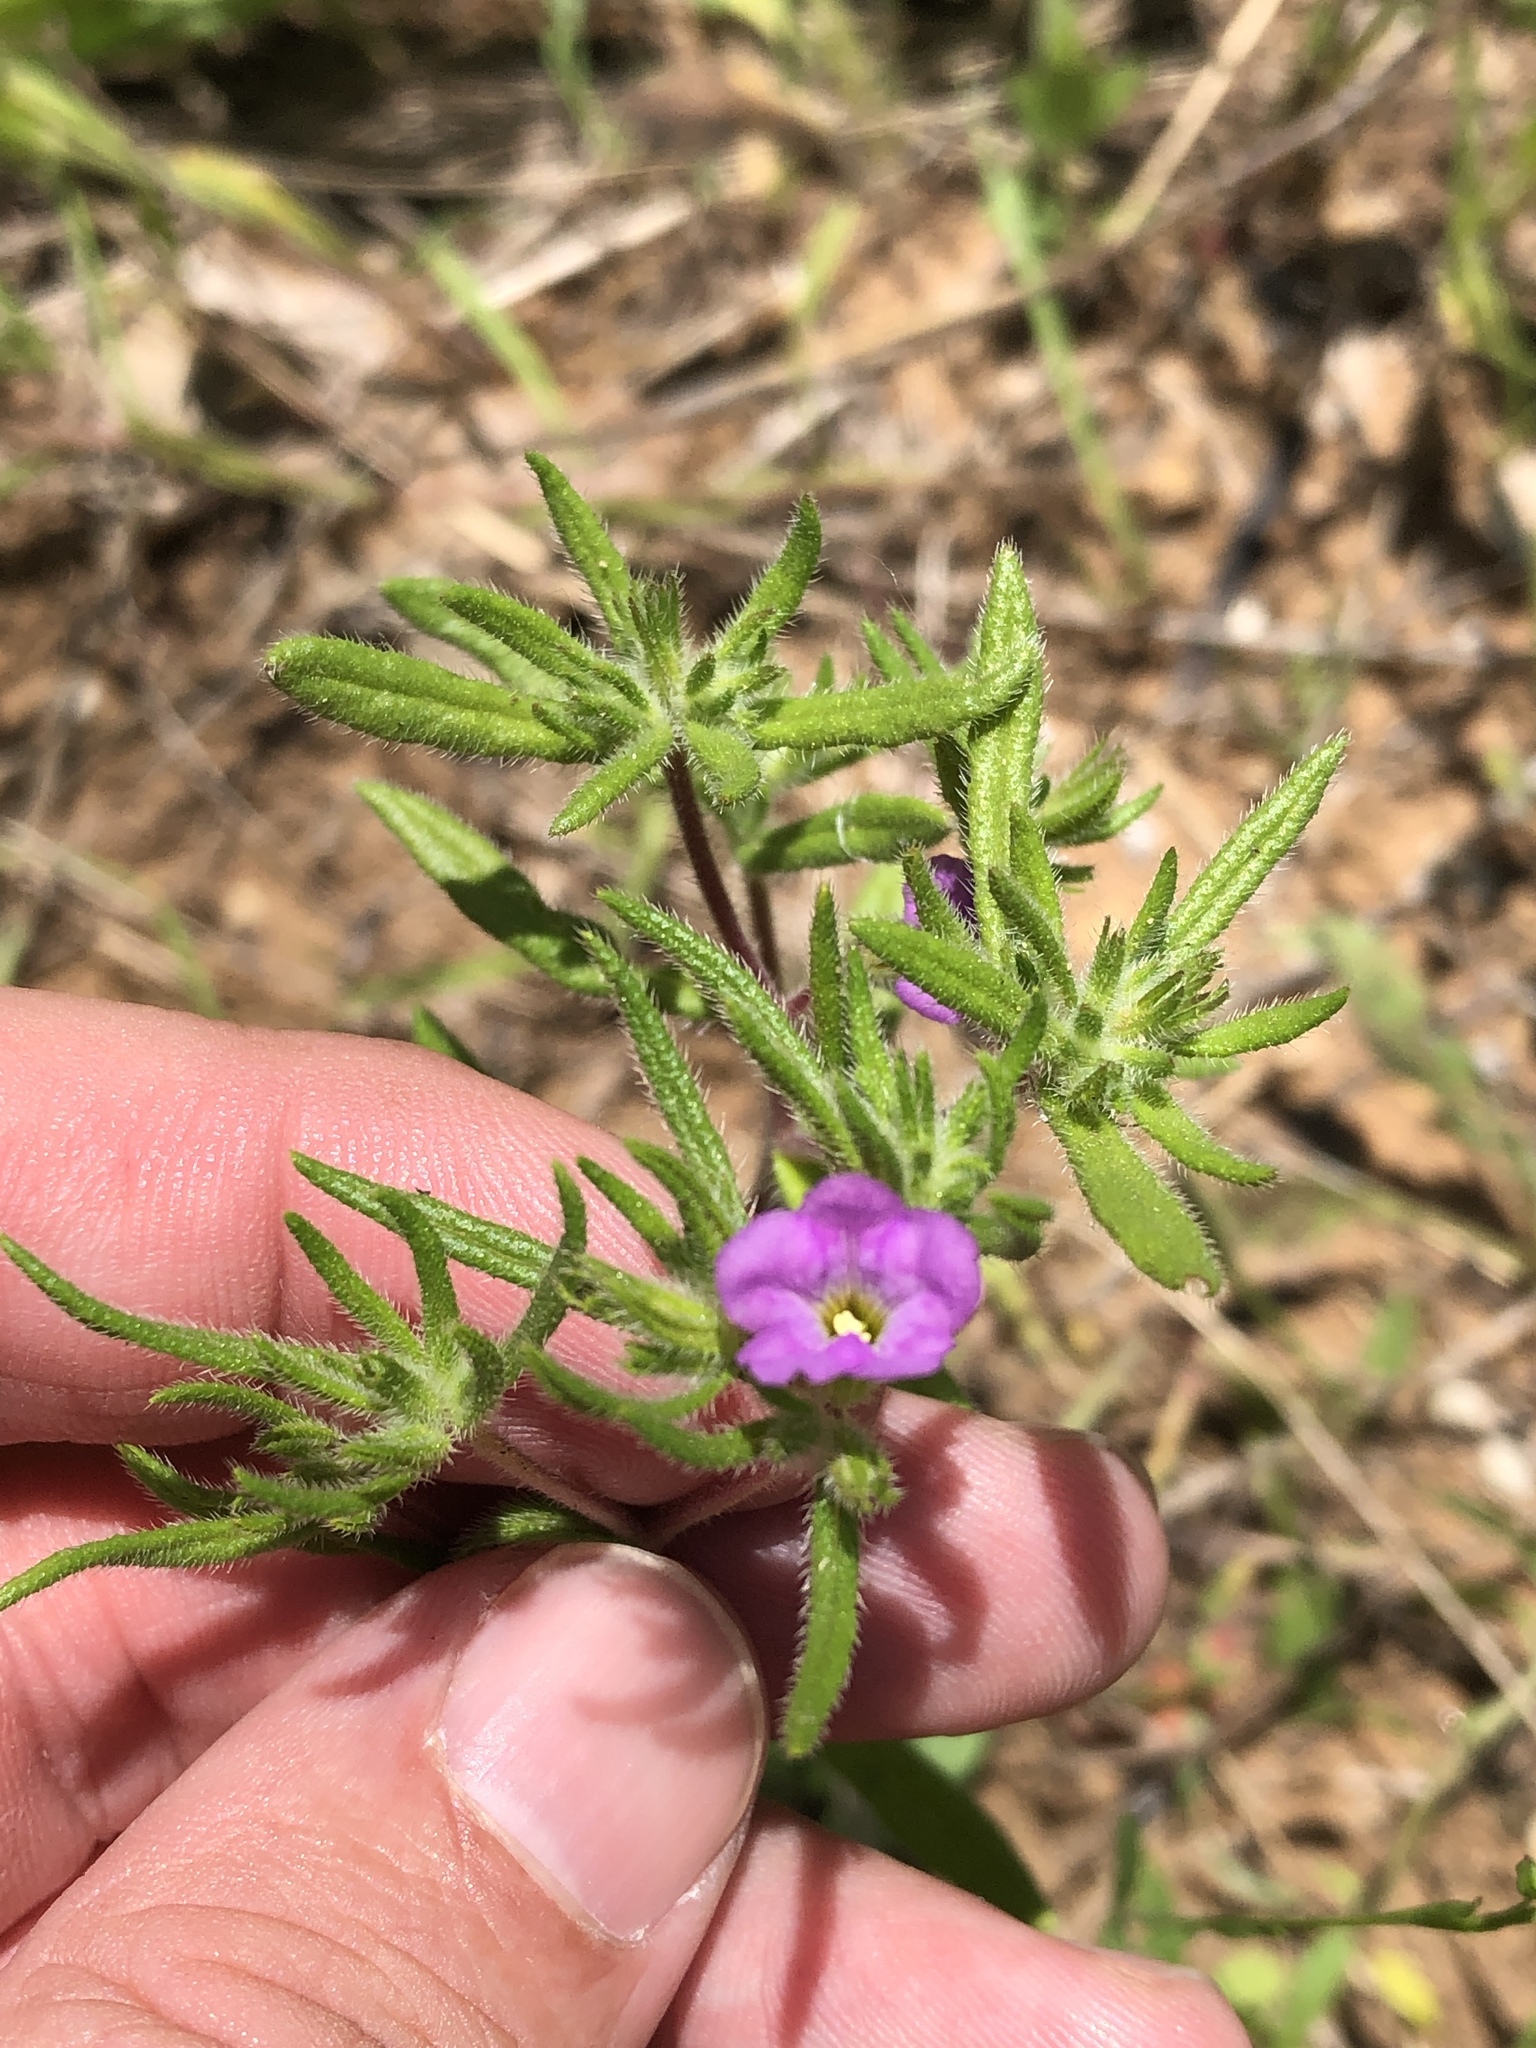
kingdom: Plantae
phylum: Tracheophyta
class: Magnoliopsida
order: Boraginales
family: Namaceae
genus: Nama
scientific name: Nama hispida
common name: Bristly nama
